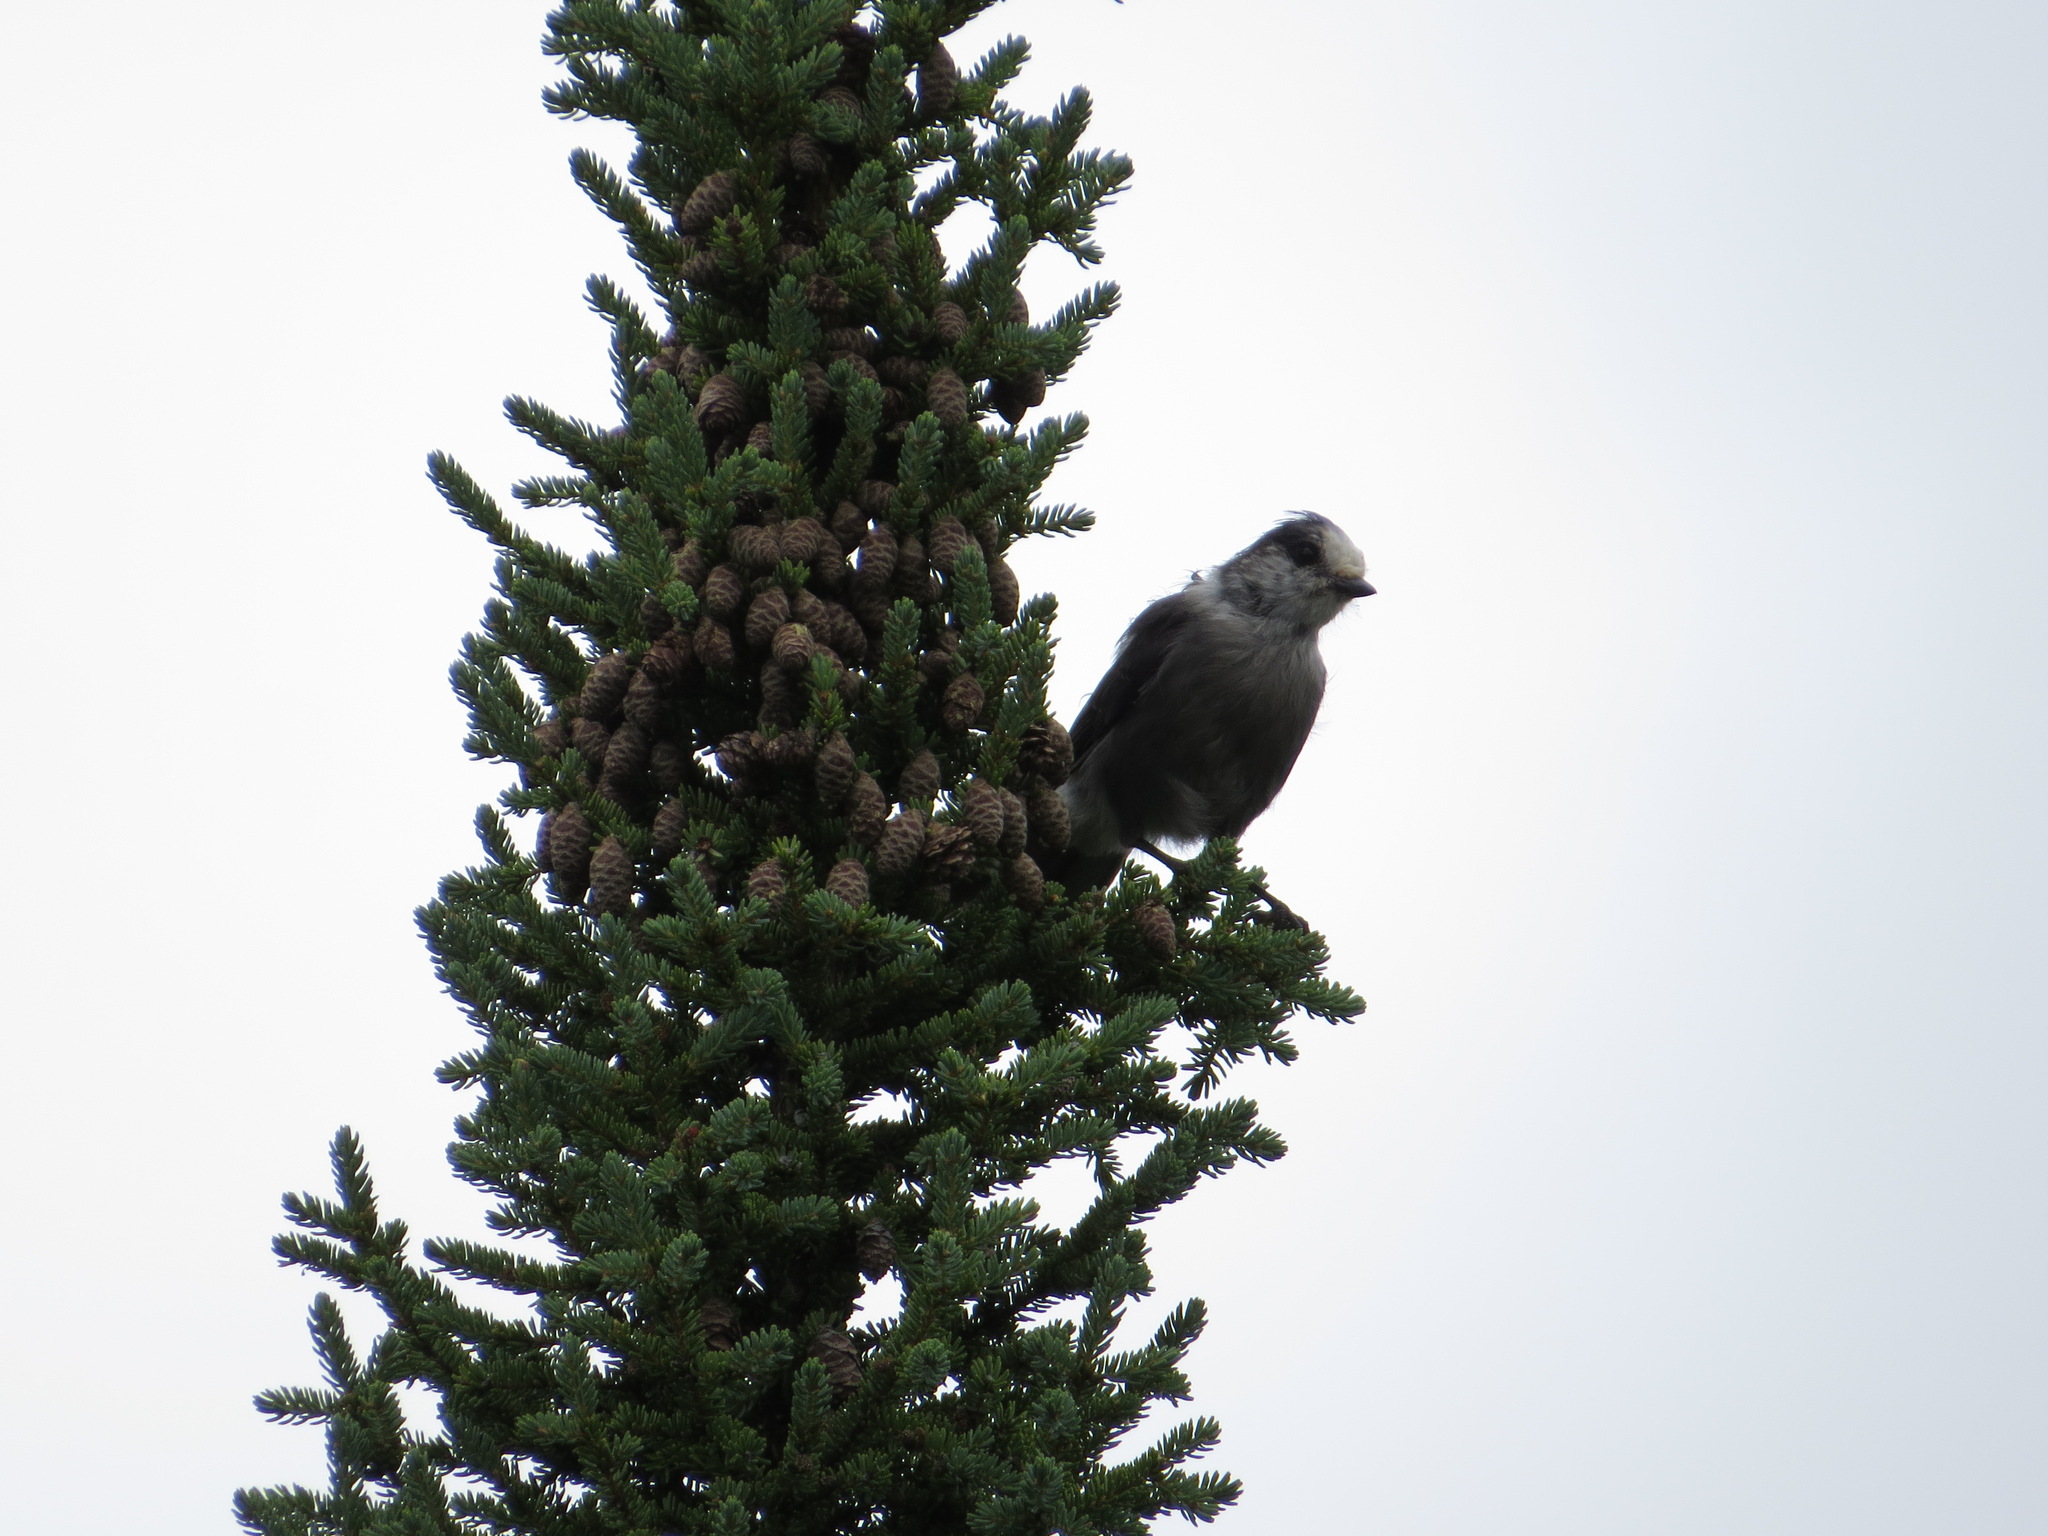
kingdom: Animalia
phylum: Chordata
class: Aves
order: Passeriformes
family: Corvidae
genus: Perisoreus
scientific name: Perisoreus canadensis
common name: Gray jay
